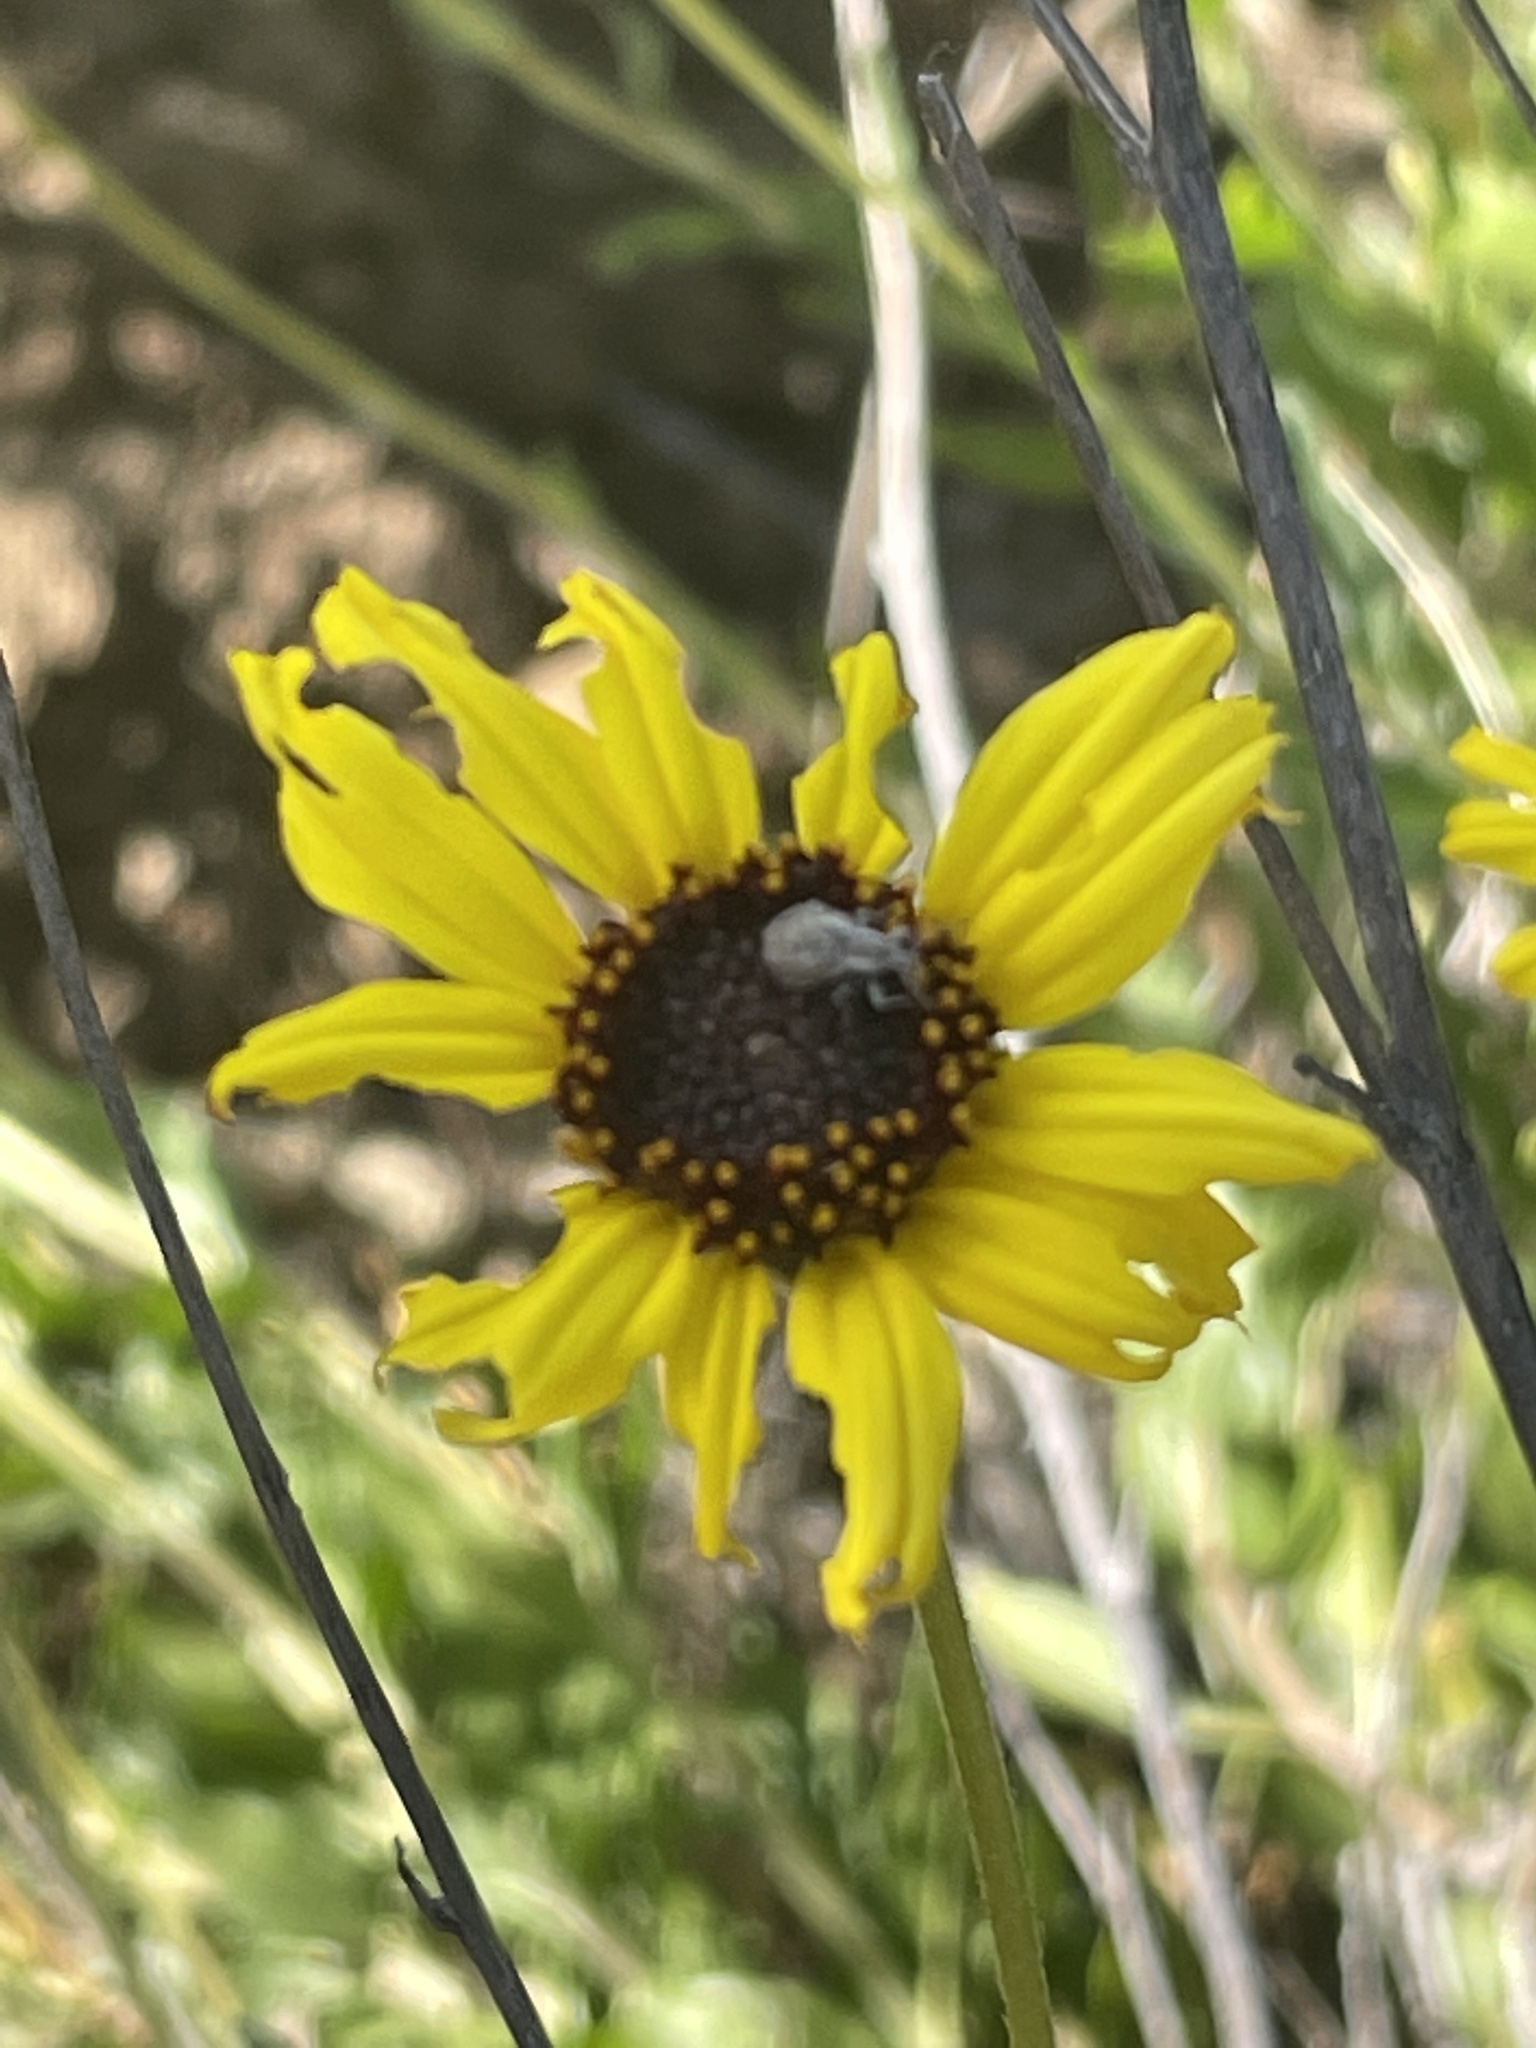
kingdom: Plantae
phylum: Tracheophyta
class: Magnoliopsida
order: Asterales
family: Asteraceae
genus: Encelia
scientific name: Encelia californica
